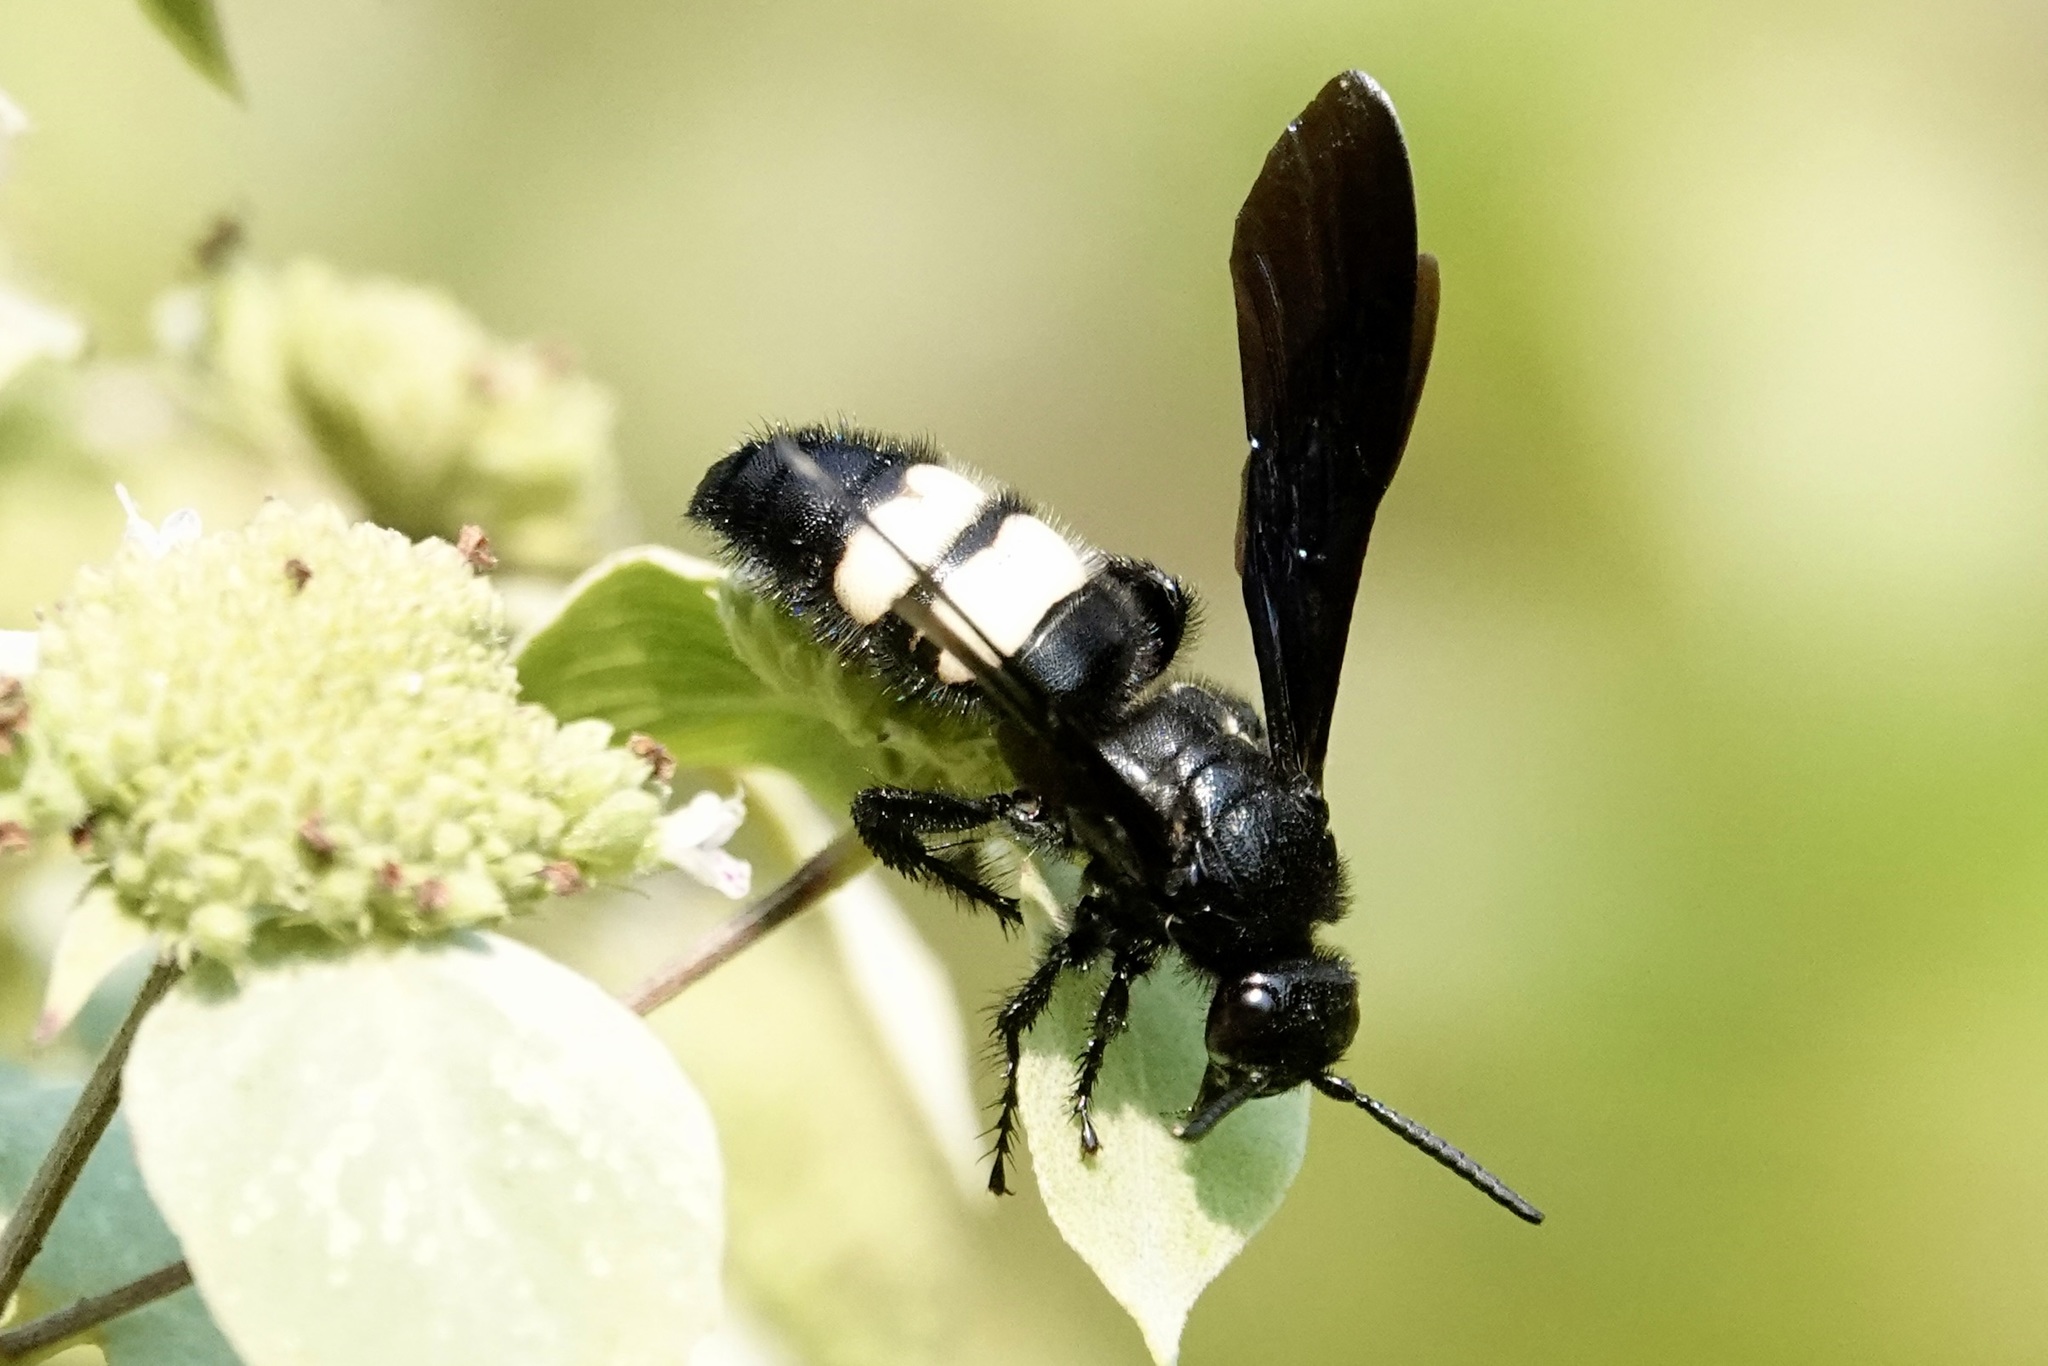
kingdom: Animalia
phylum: Arthropoda
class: Insecta
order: Hymenoptera
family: Scoliidae
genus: Scolia
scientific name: Scolia bicincta
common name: Double-banded scoliid wasp
